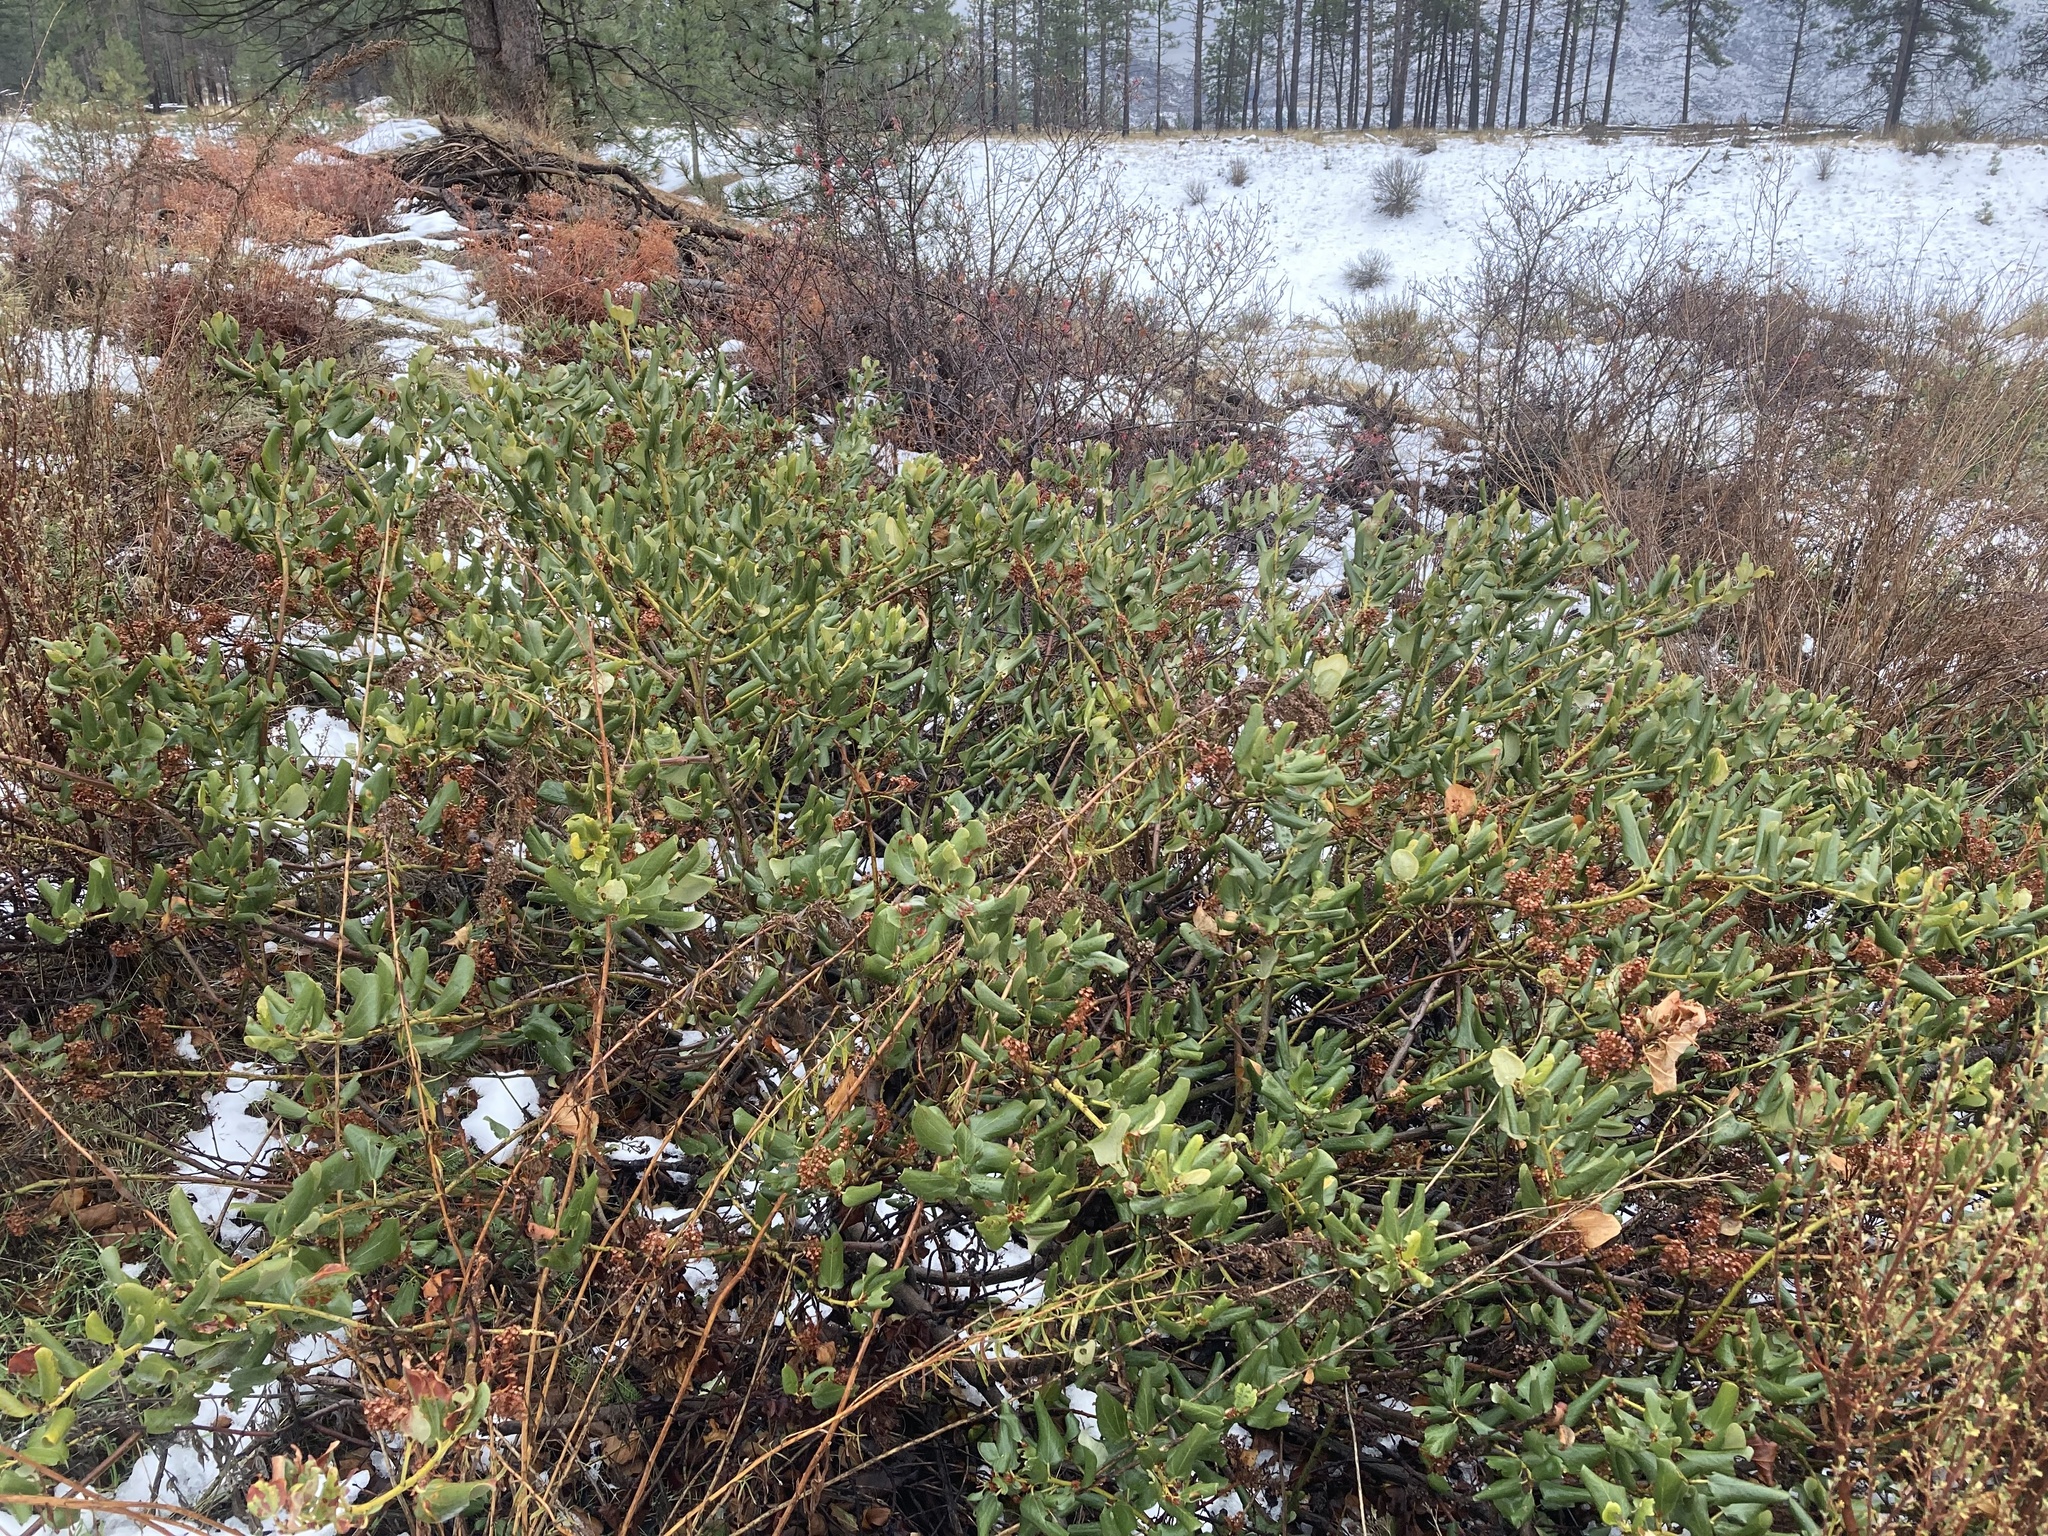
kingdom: Plantae
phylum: Tracheophyta
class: Magnoliopsida
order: Rosales
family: Rhamnaceae
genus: Ceanothus
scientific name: Ceanothus velutinus
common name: Snowbrush
